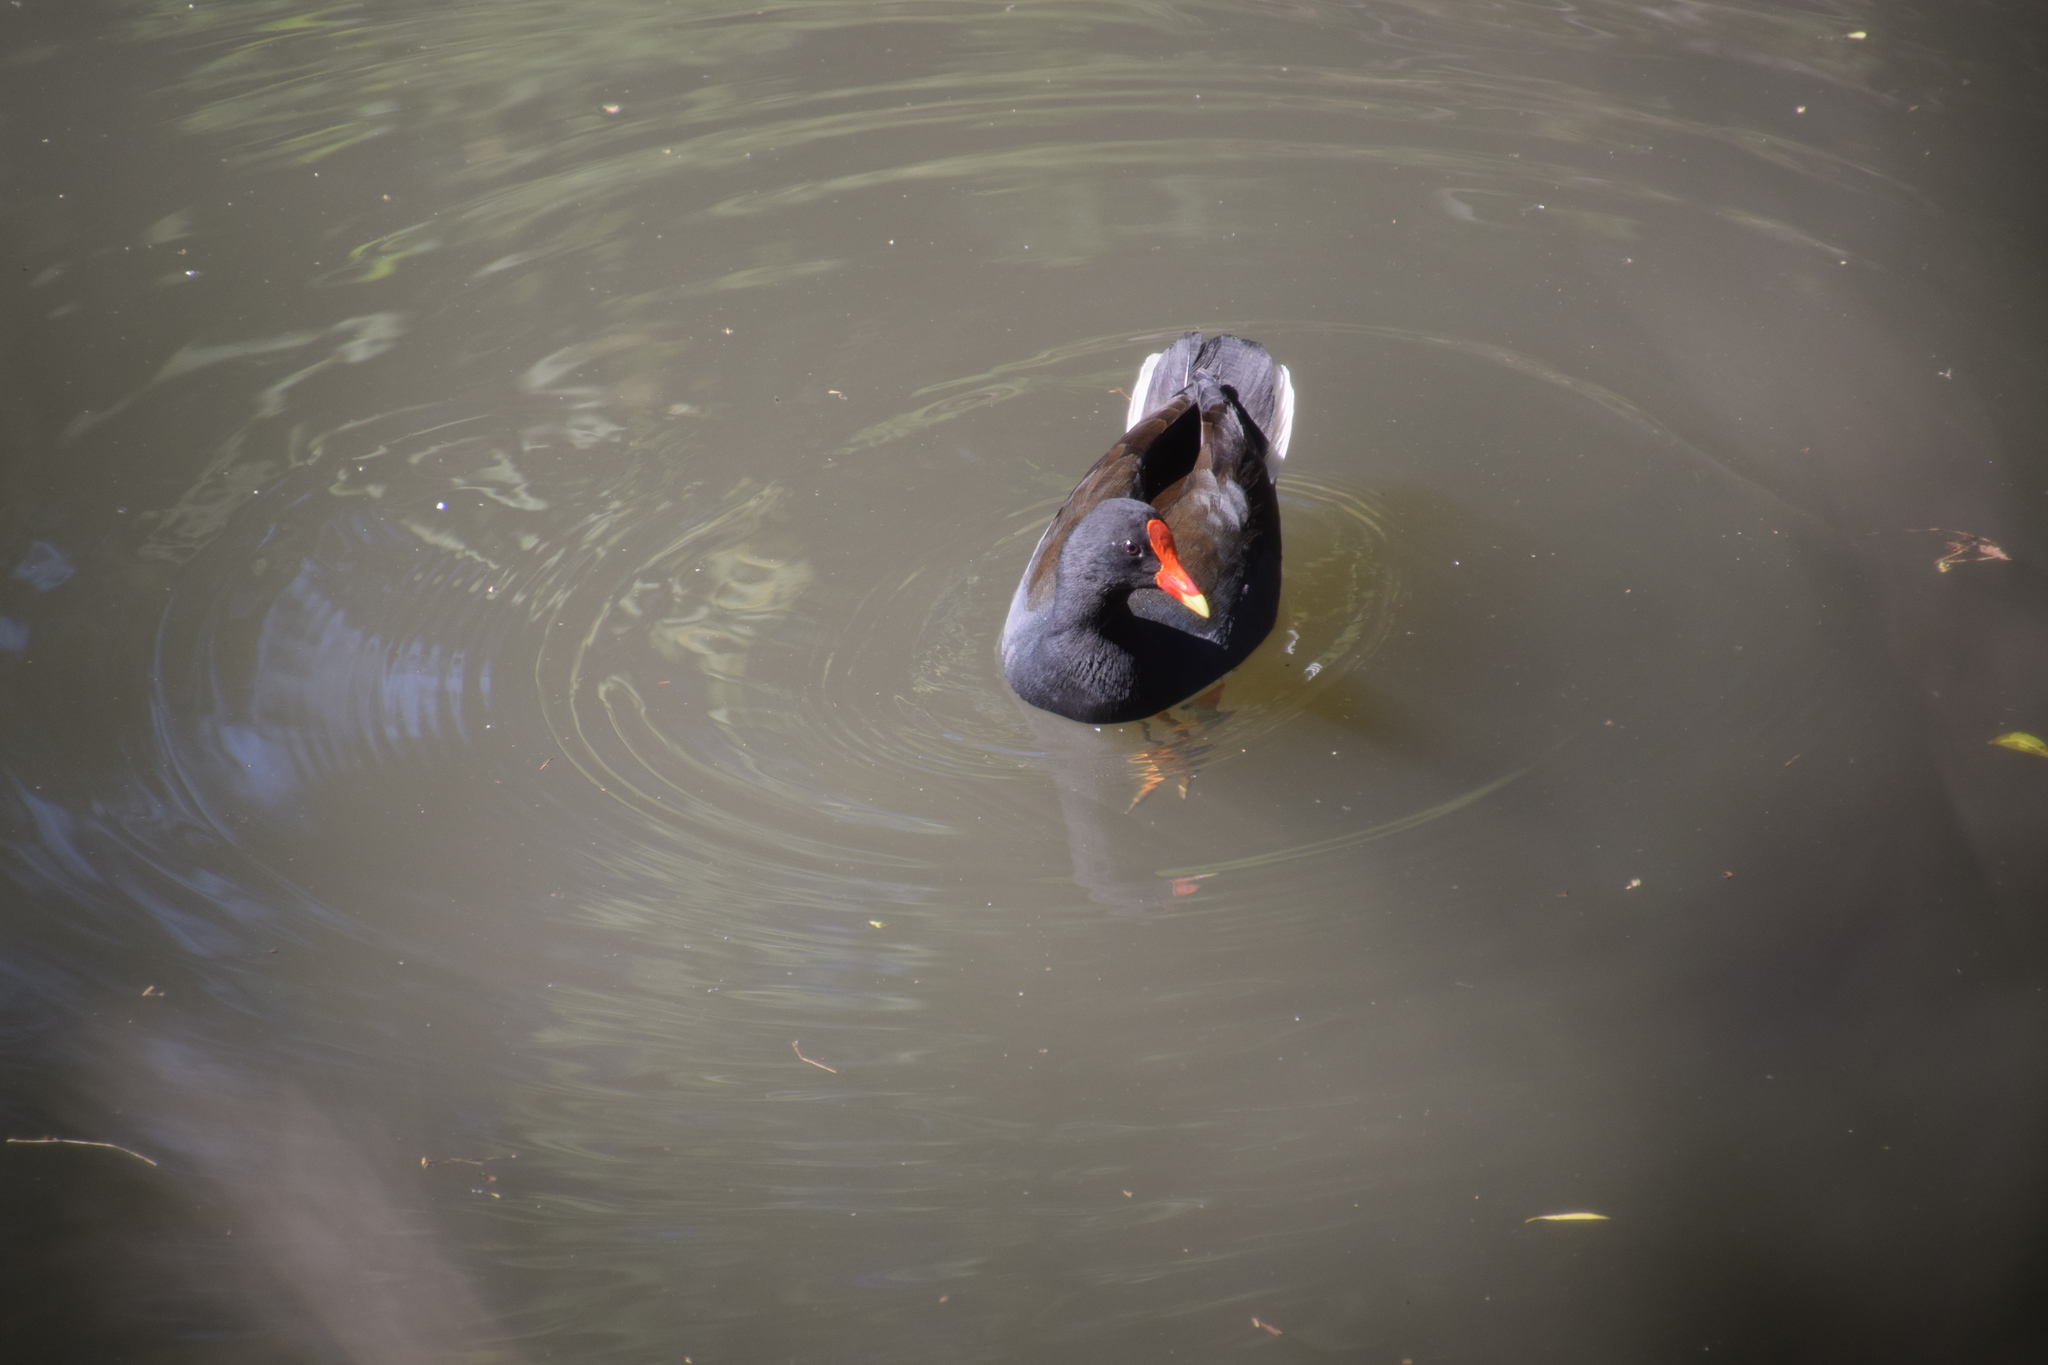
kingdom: Animalia
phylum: Chordata
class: Aves
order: Gruiformes
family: Rallidae
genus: Gallinula
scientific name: Gallinula tenebrosa
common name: Dusky moorhen
